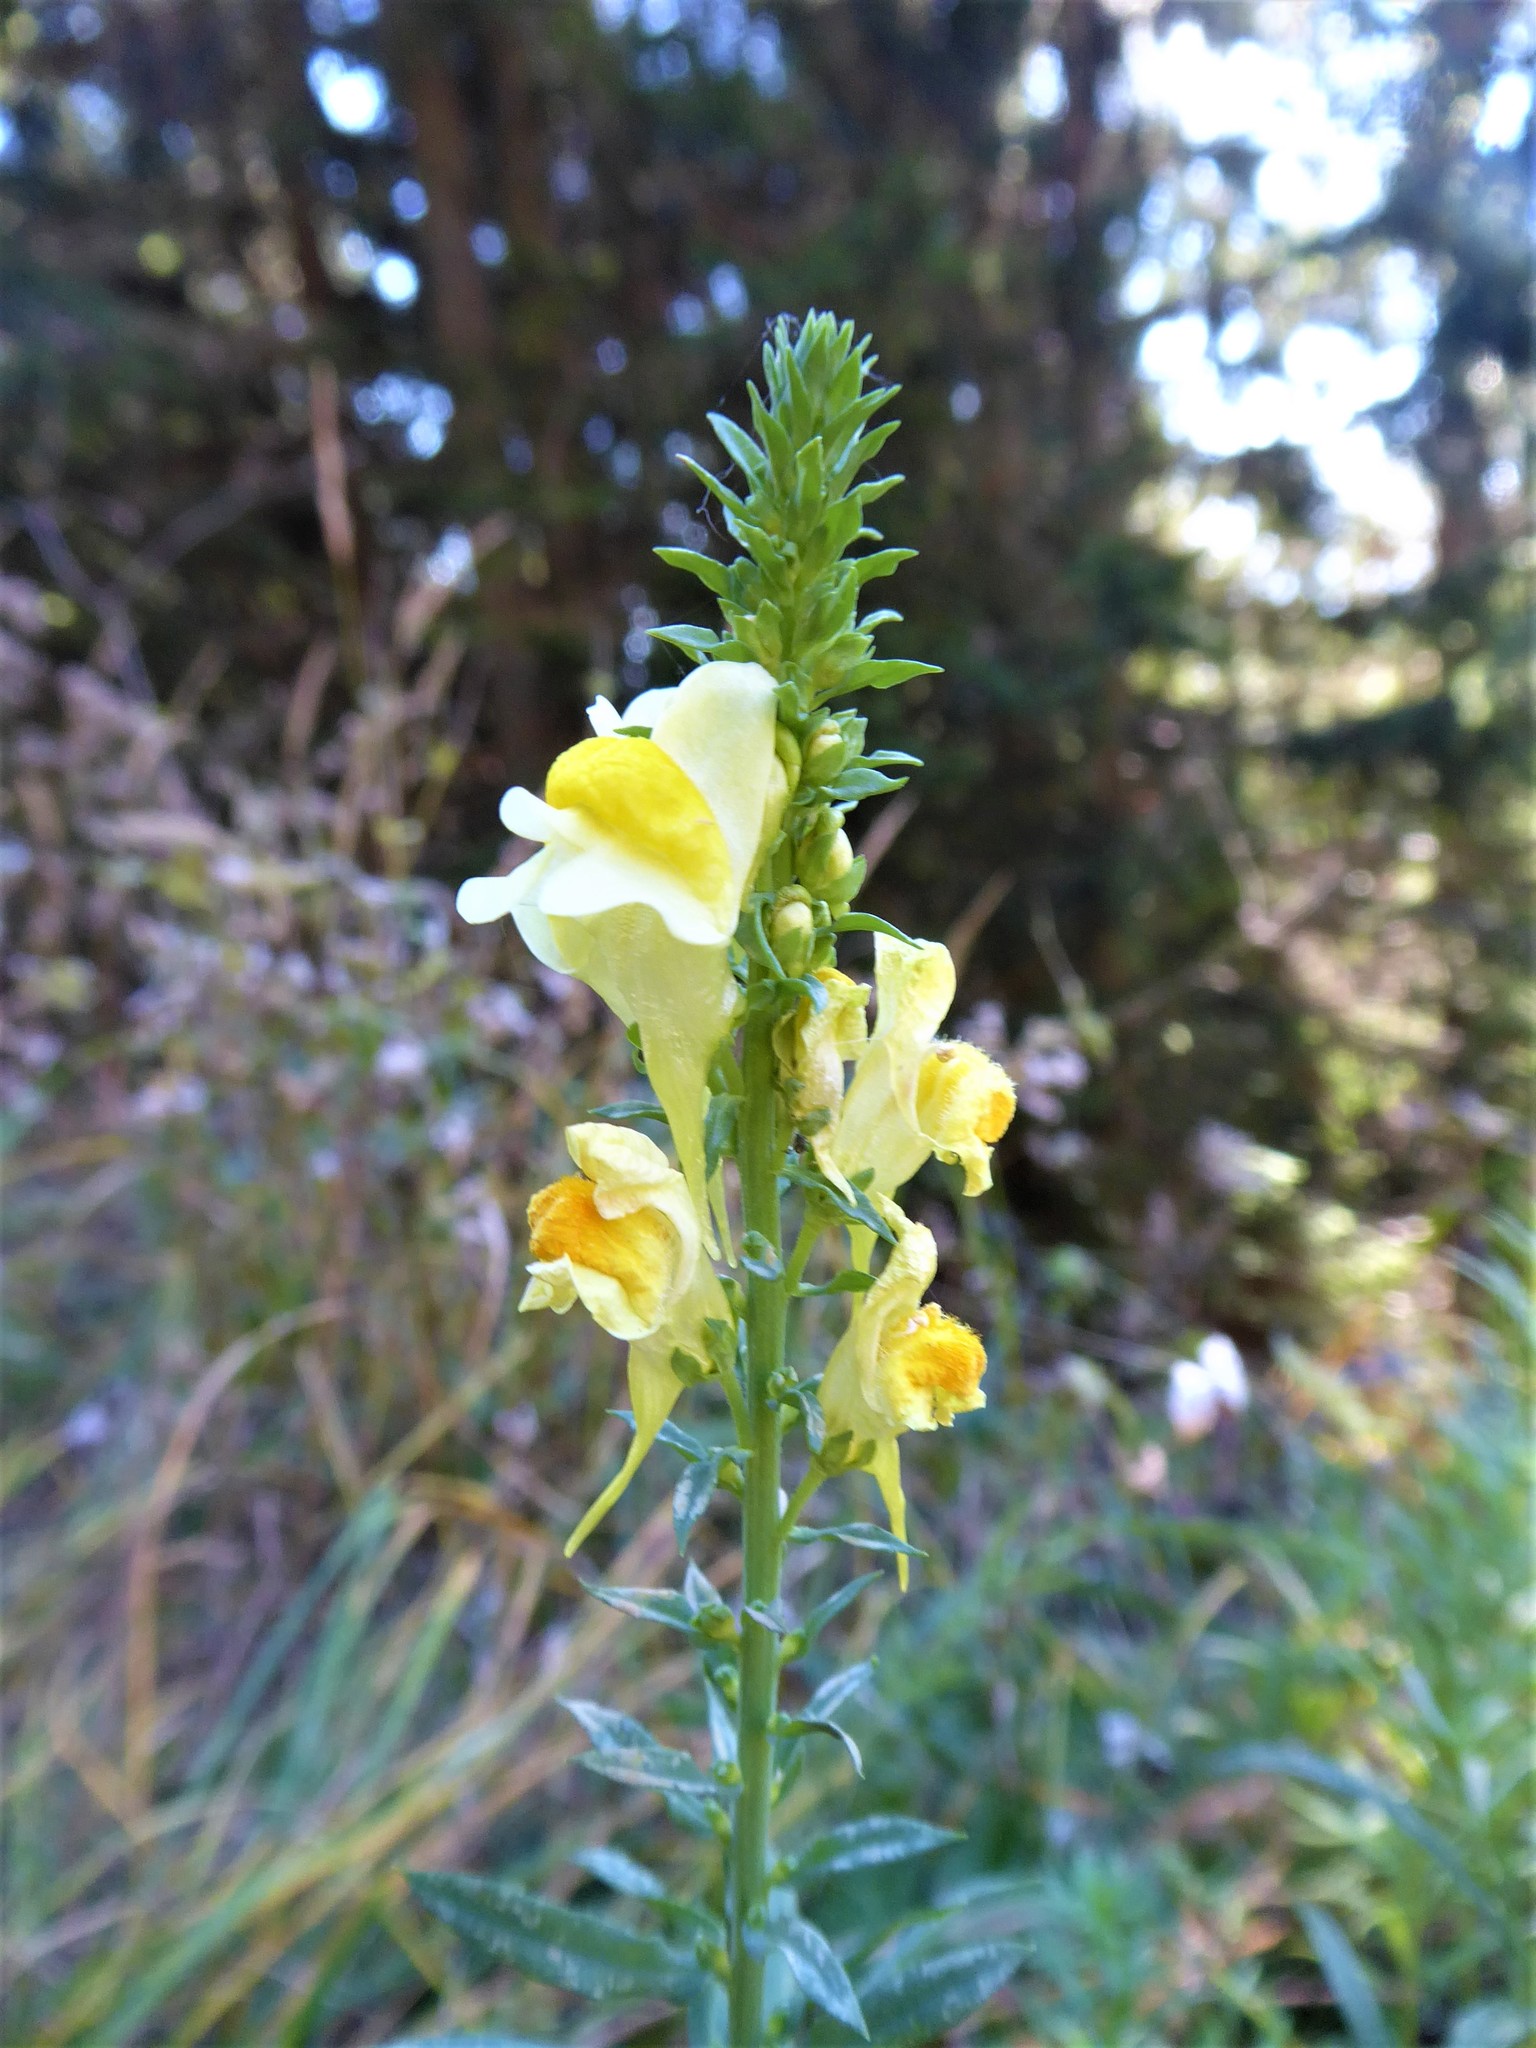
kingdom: Plantae
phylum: Tracheophyta
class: Magnoliopsida
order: Lamiales
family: Plantaginaceae
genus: Linaria
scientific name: Linaria vulgaris
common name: Butter and eggs
